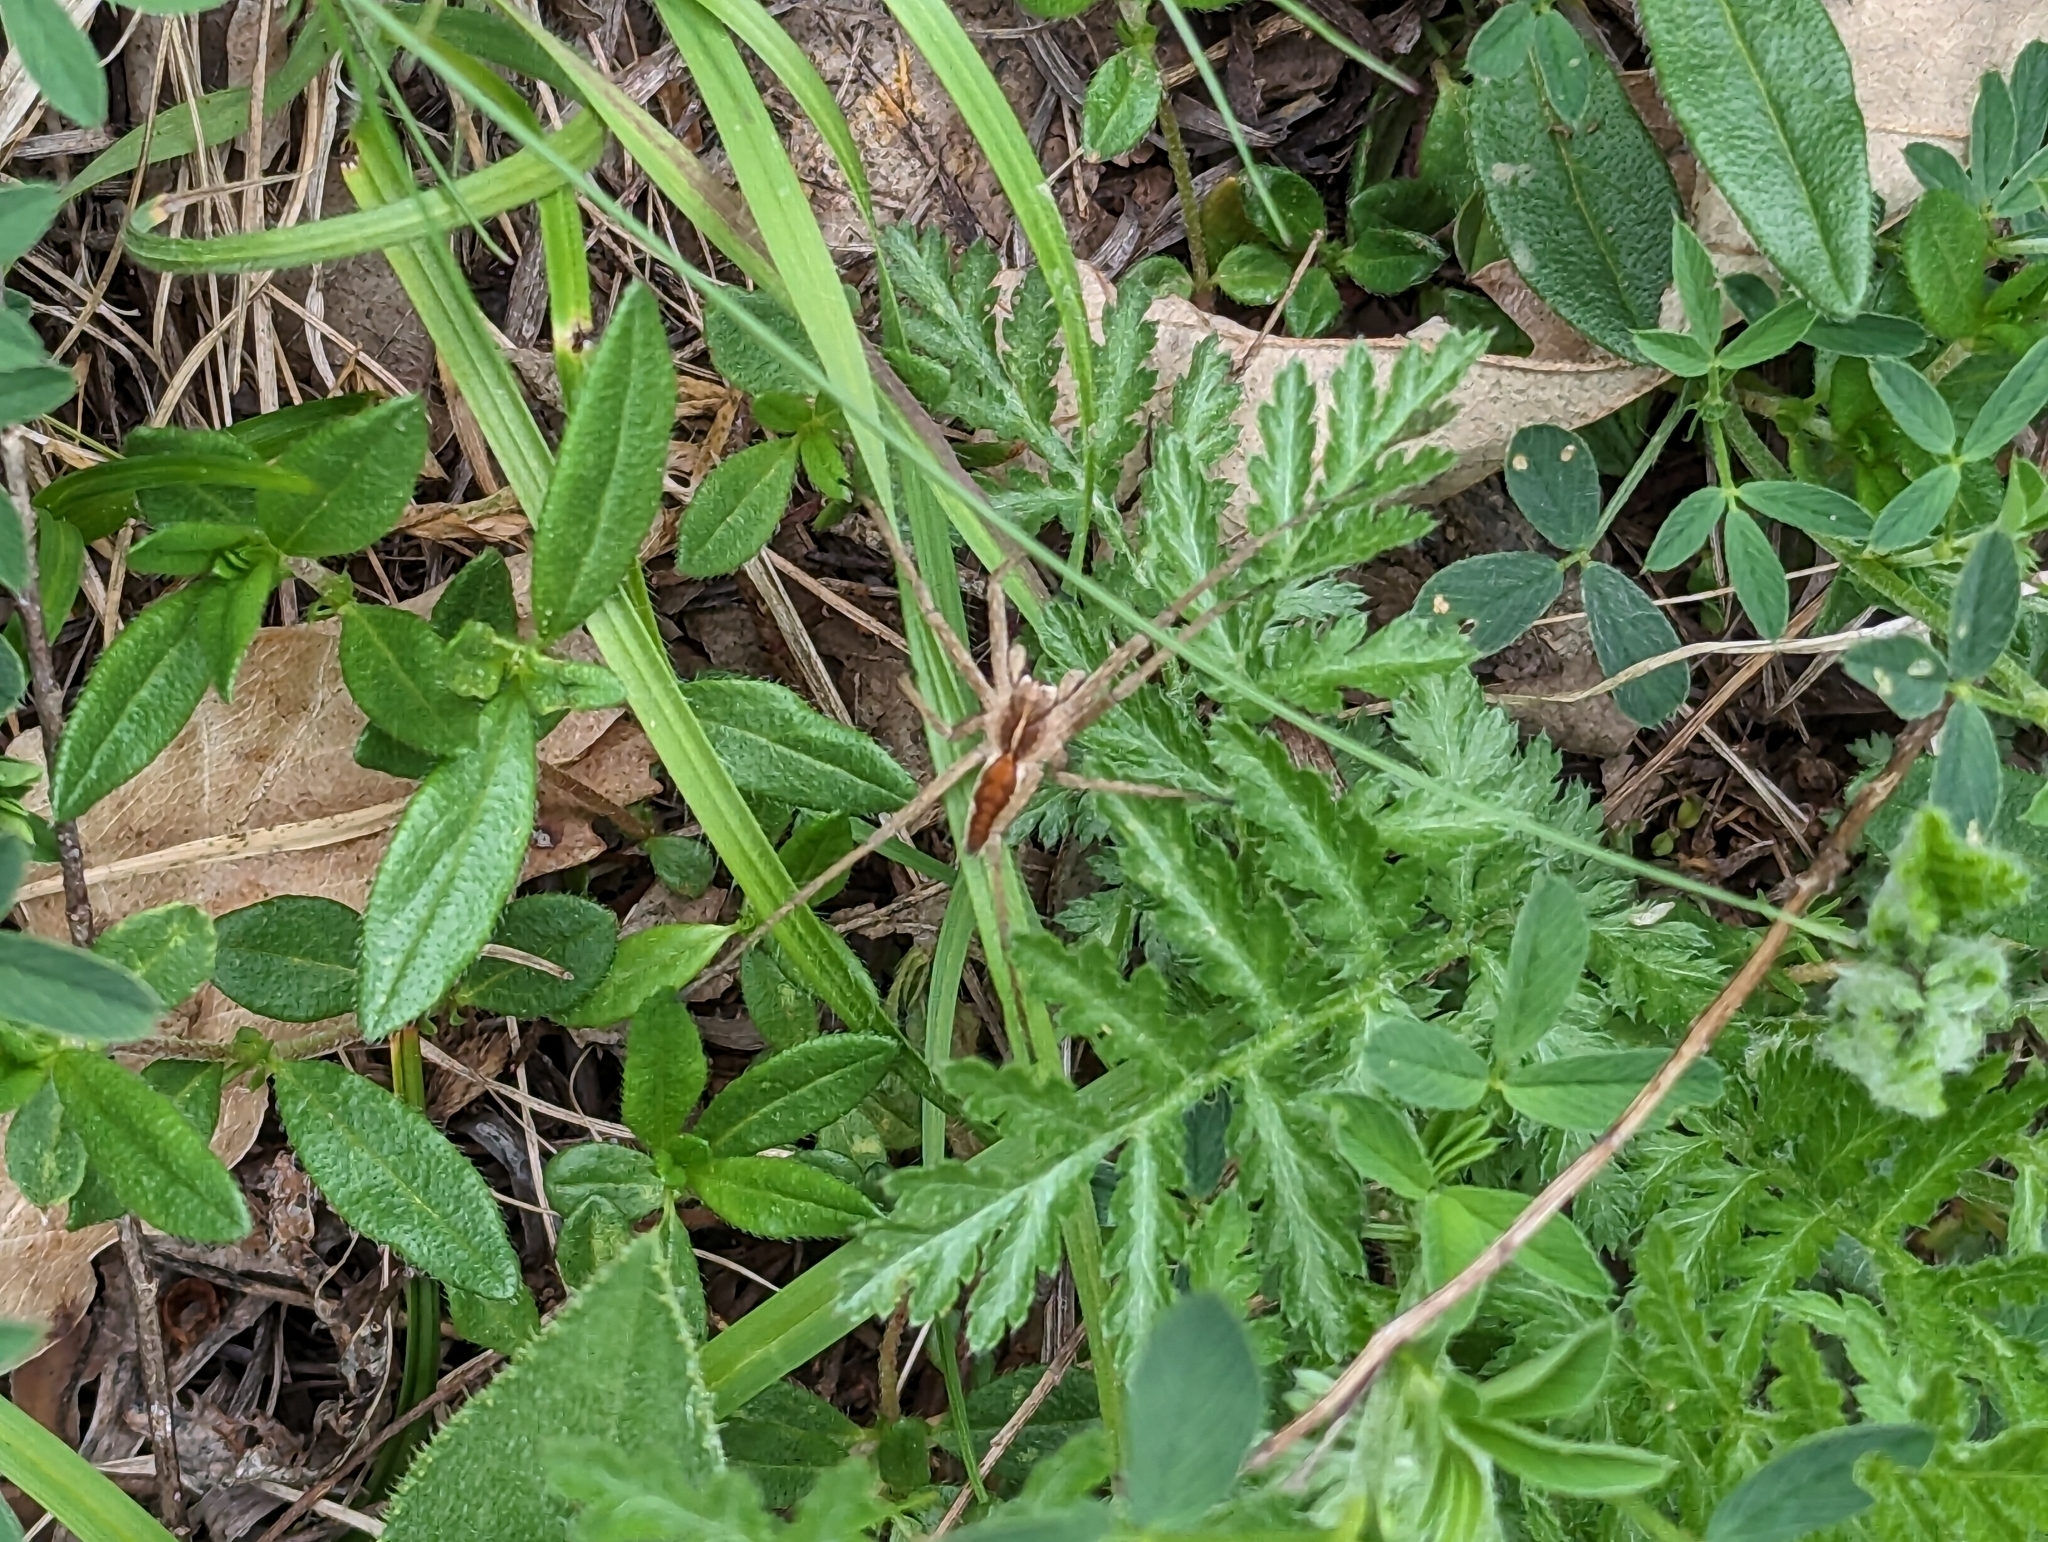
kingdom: Animalia
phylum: Arthropoda
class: Arachnida
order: Araneae
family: Pisauridae
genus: Pisaura
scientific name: Pisaura mirabilis
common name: Tent spider
